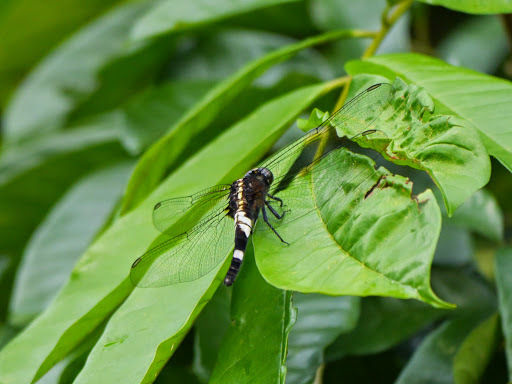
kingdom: Animalia
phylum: Arthropoda
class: Insecta
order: Odonata
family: Libellulidae
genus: Cyanothemis
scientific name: Cyanothemis simpsoni
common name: Bluebolt
